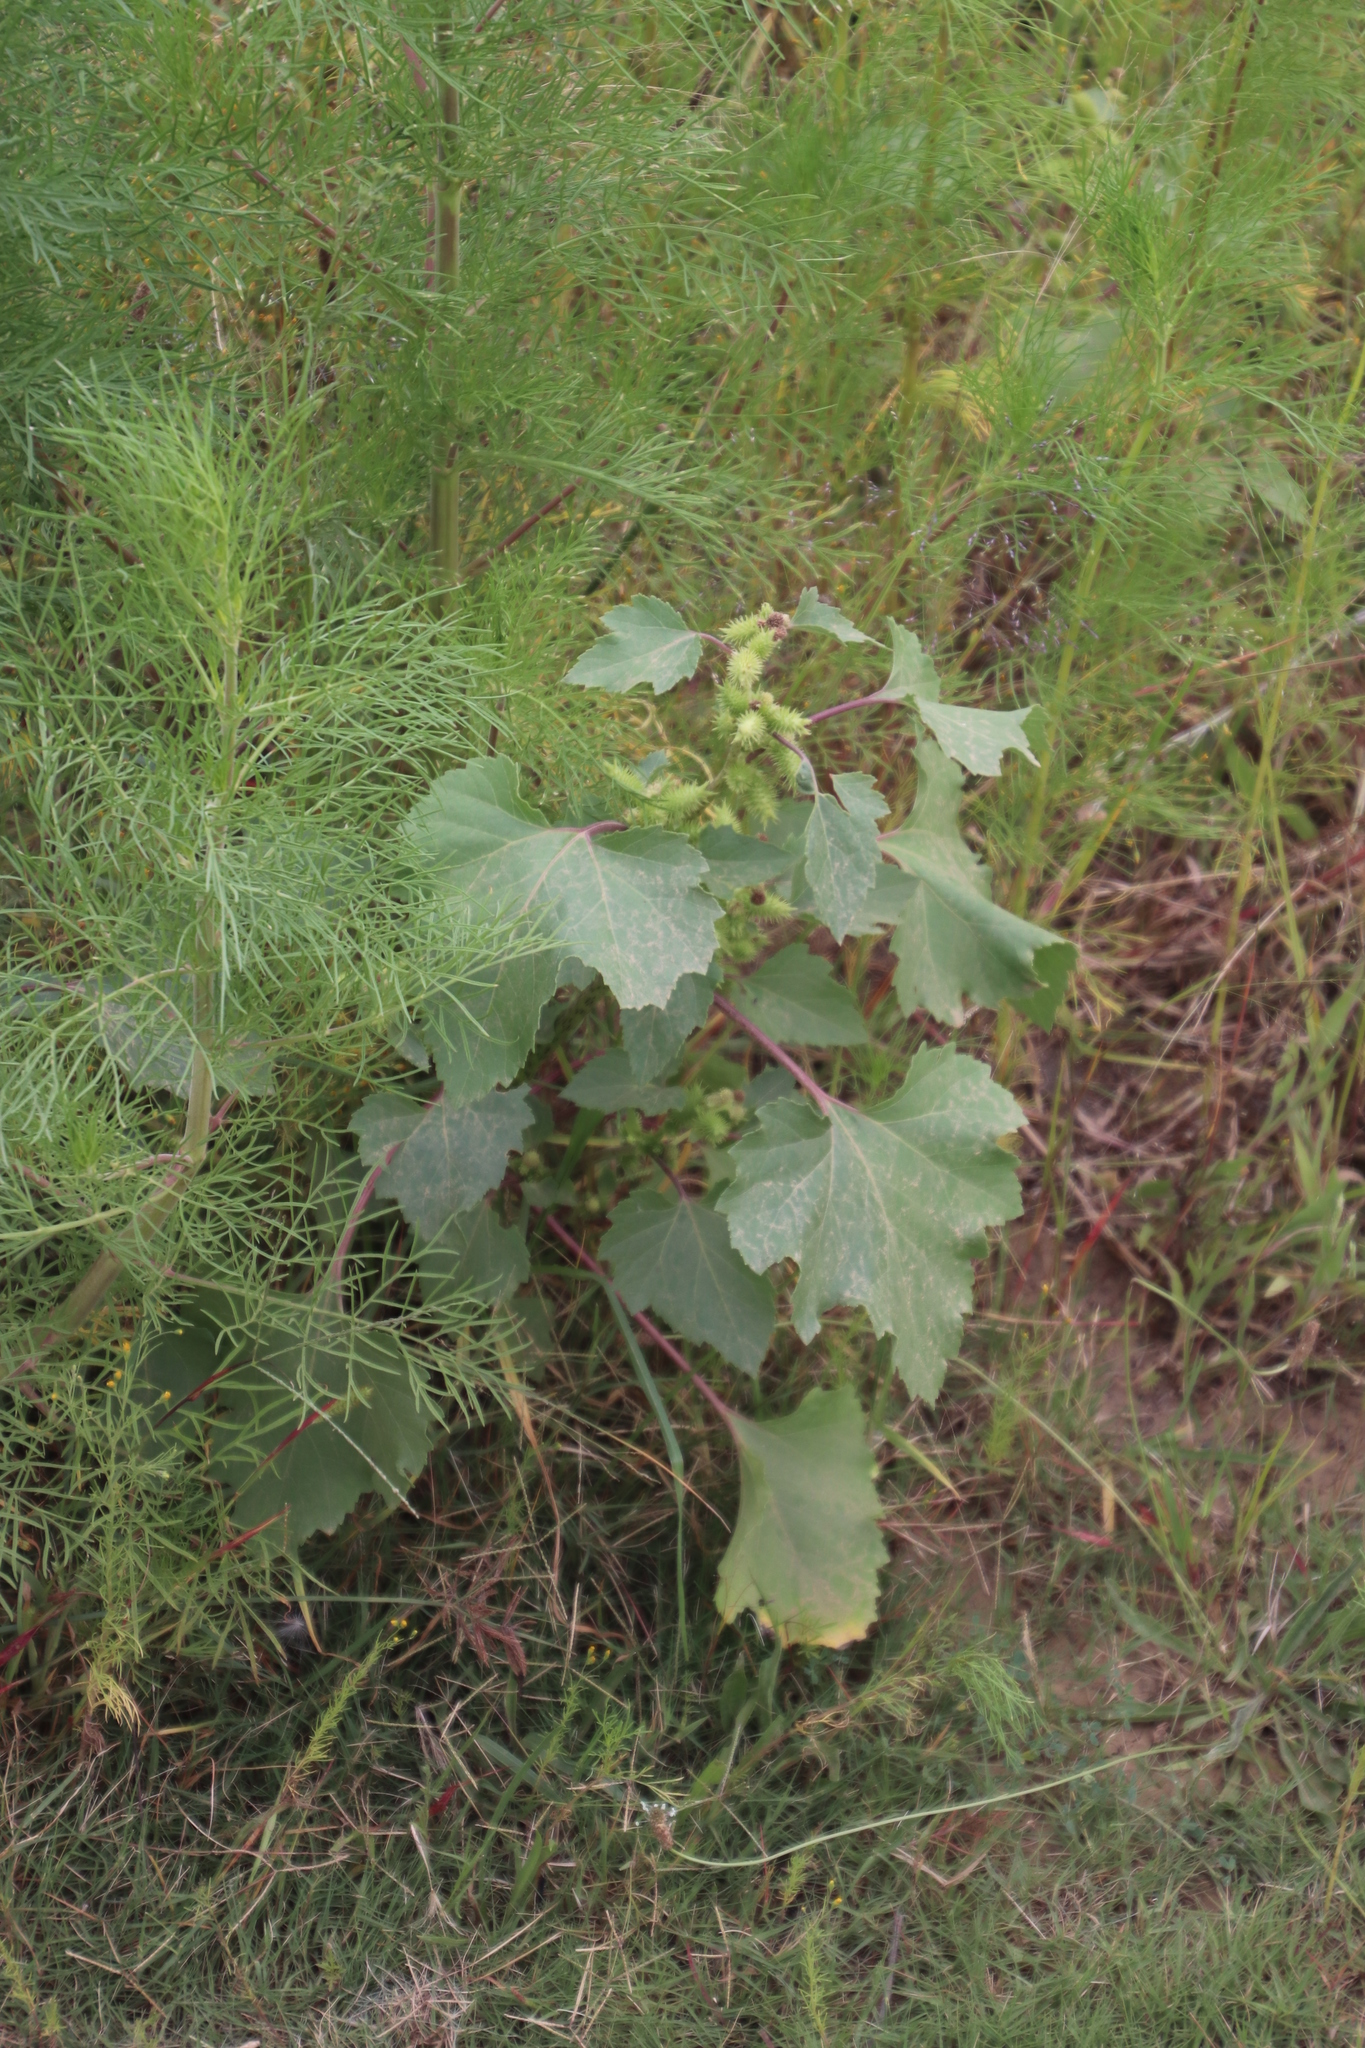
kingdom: Plantae
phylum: Tracheophyta
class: Magnoliopsida
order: Asterales
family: Asteraceae
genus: Xanthium
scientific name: Xanthium strumarium
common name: Rough cocklebur
